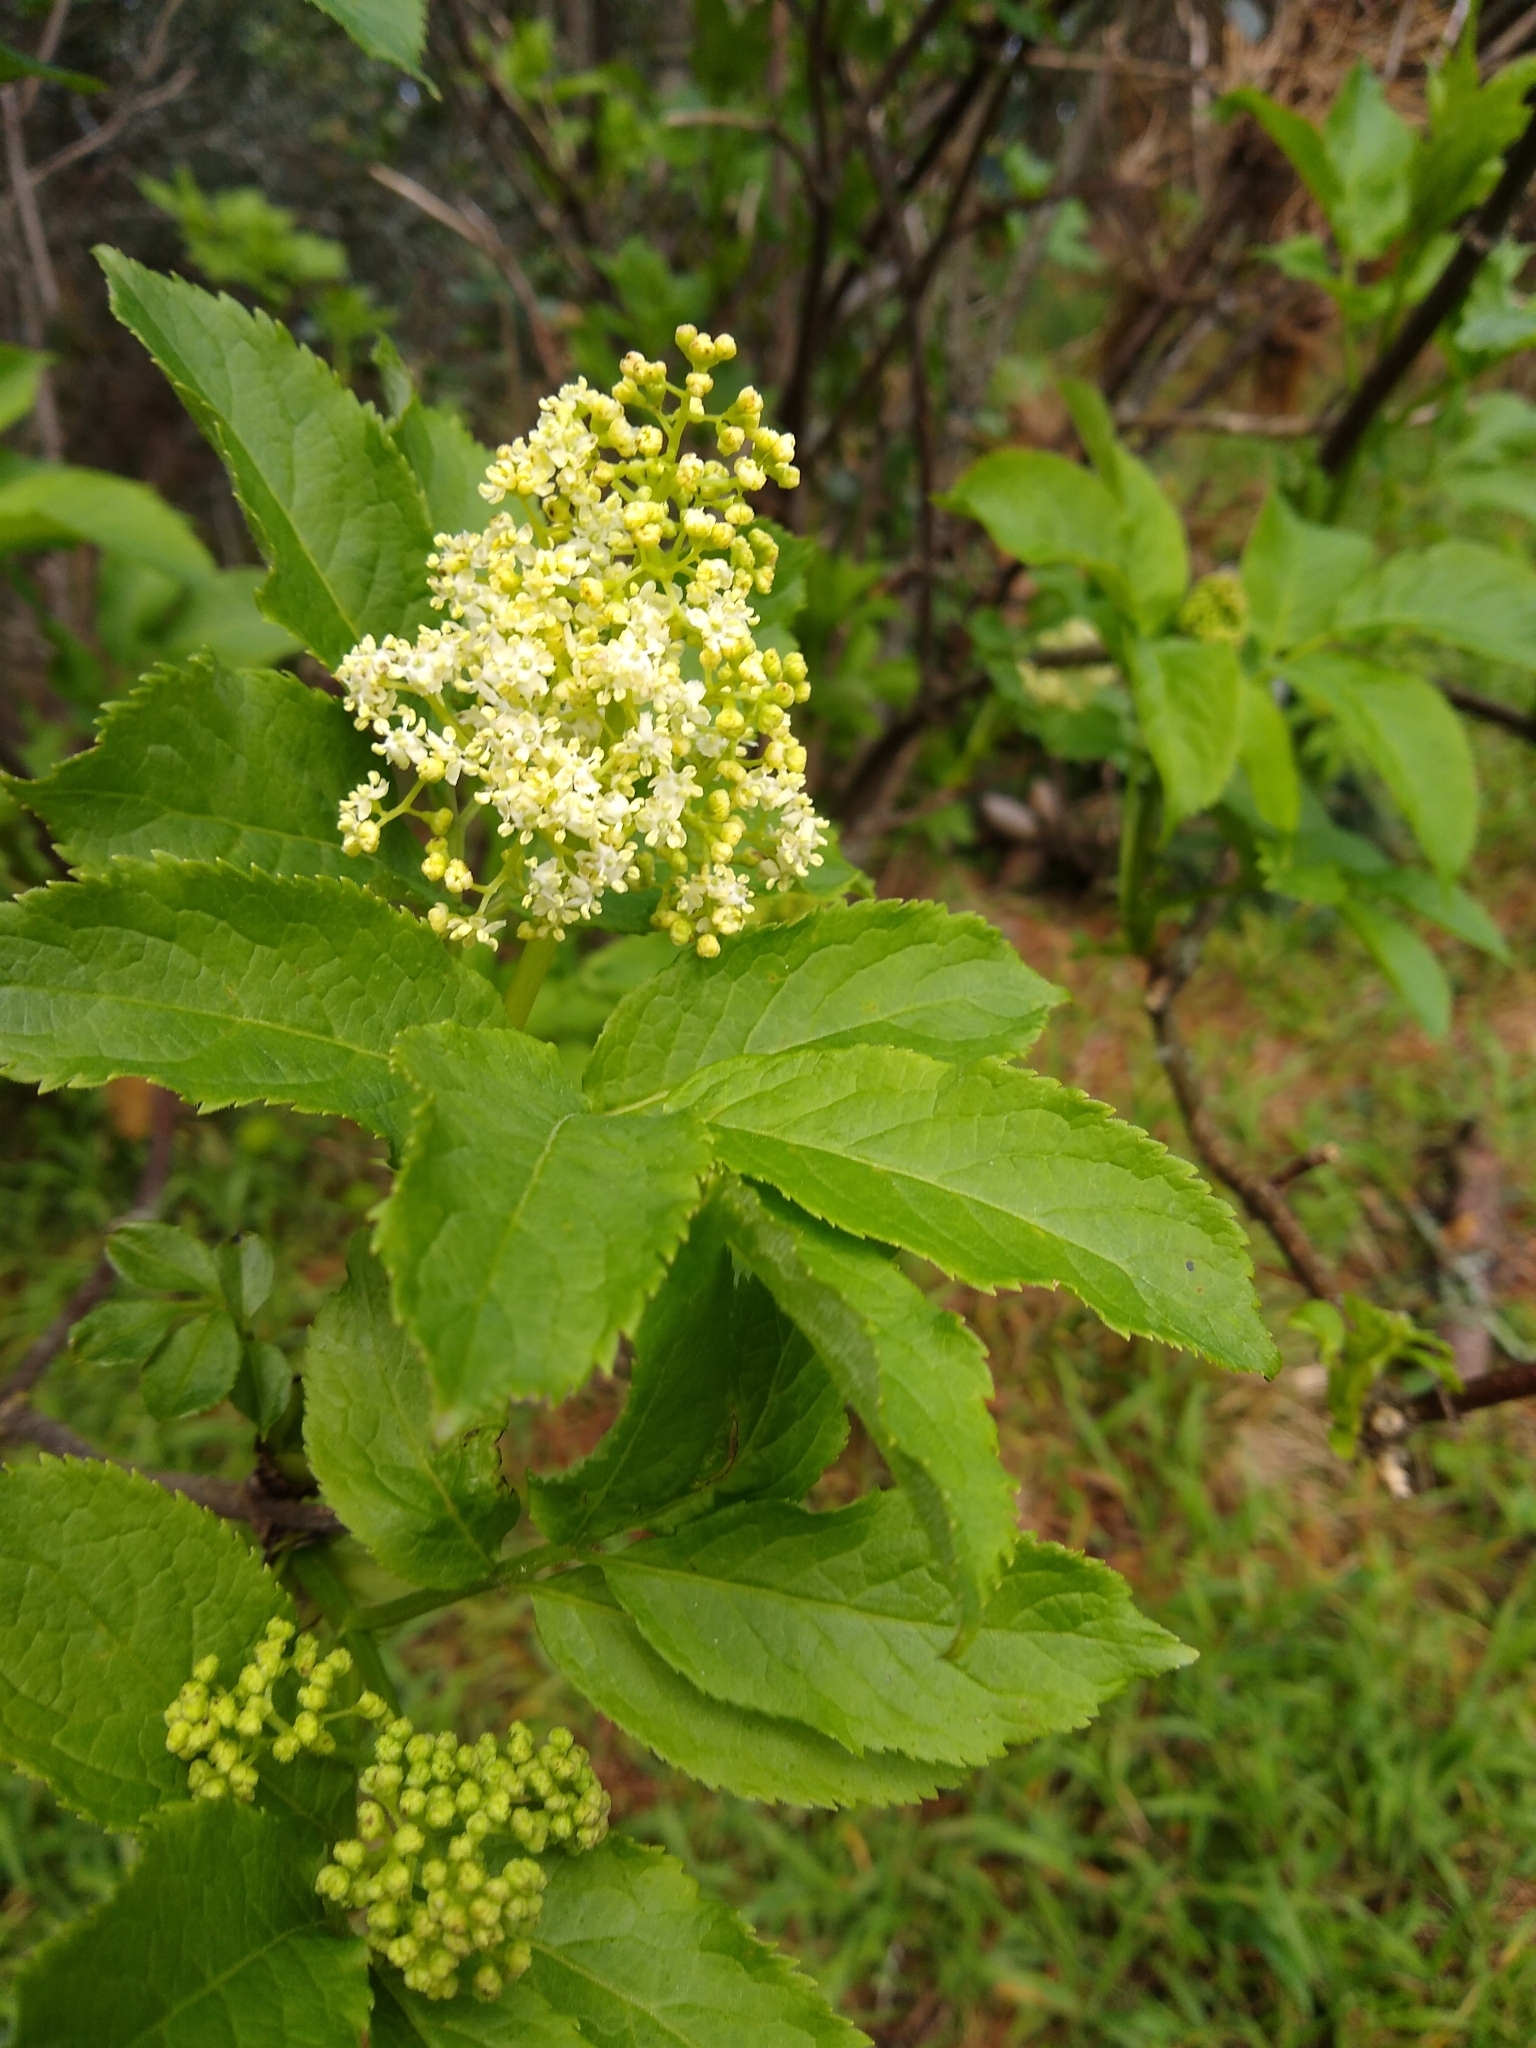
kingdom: Plantae
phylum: Tracheophyta
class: Magnoliopsida
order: Dipsacales
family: Viburnaceae
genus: Sambucus
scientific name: Sambucus racemosa
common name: Red-berried elder
